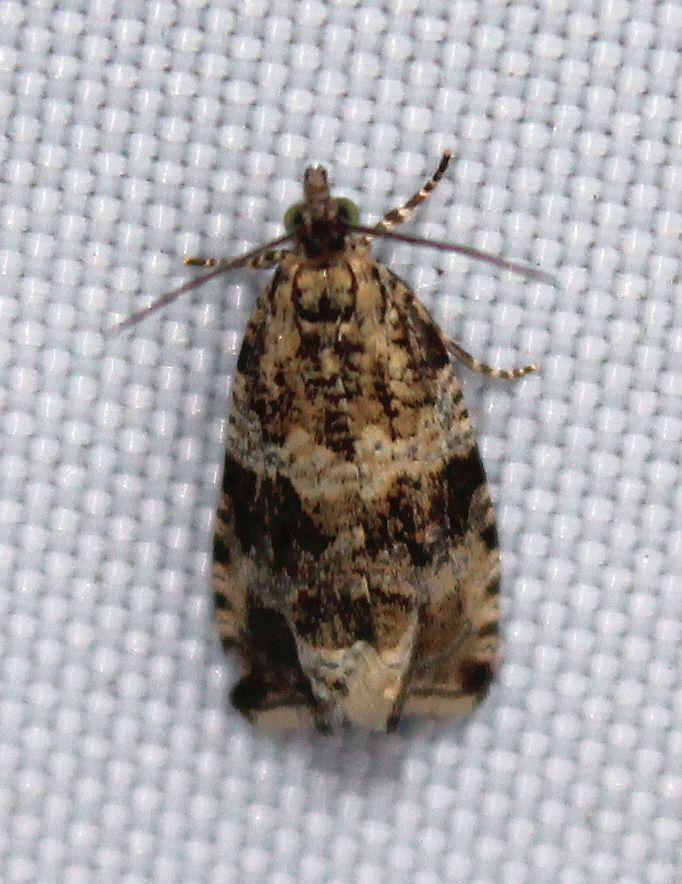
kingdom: Animalia
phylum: Arthropoda
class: Insecta
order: Lepidoptera
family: Tortricidae
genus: Syricoris
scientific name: Syricoris lacunana
